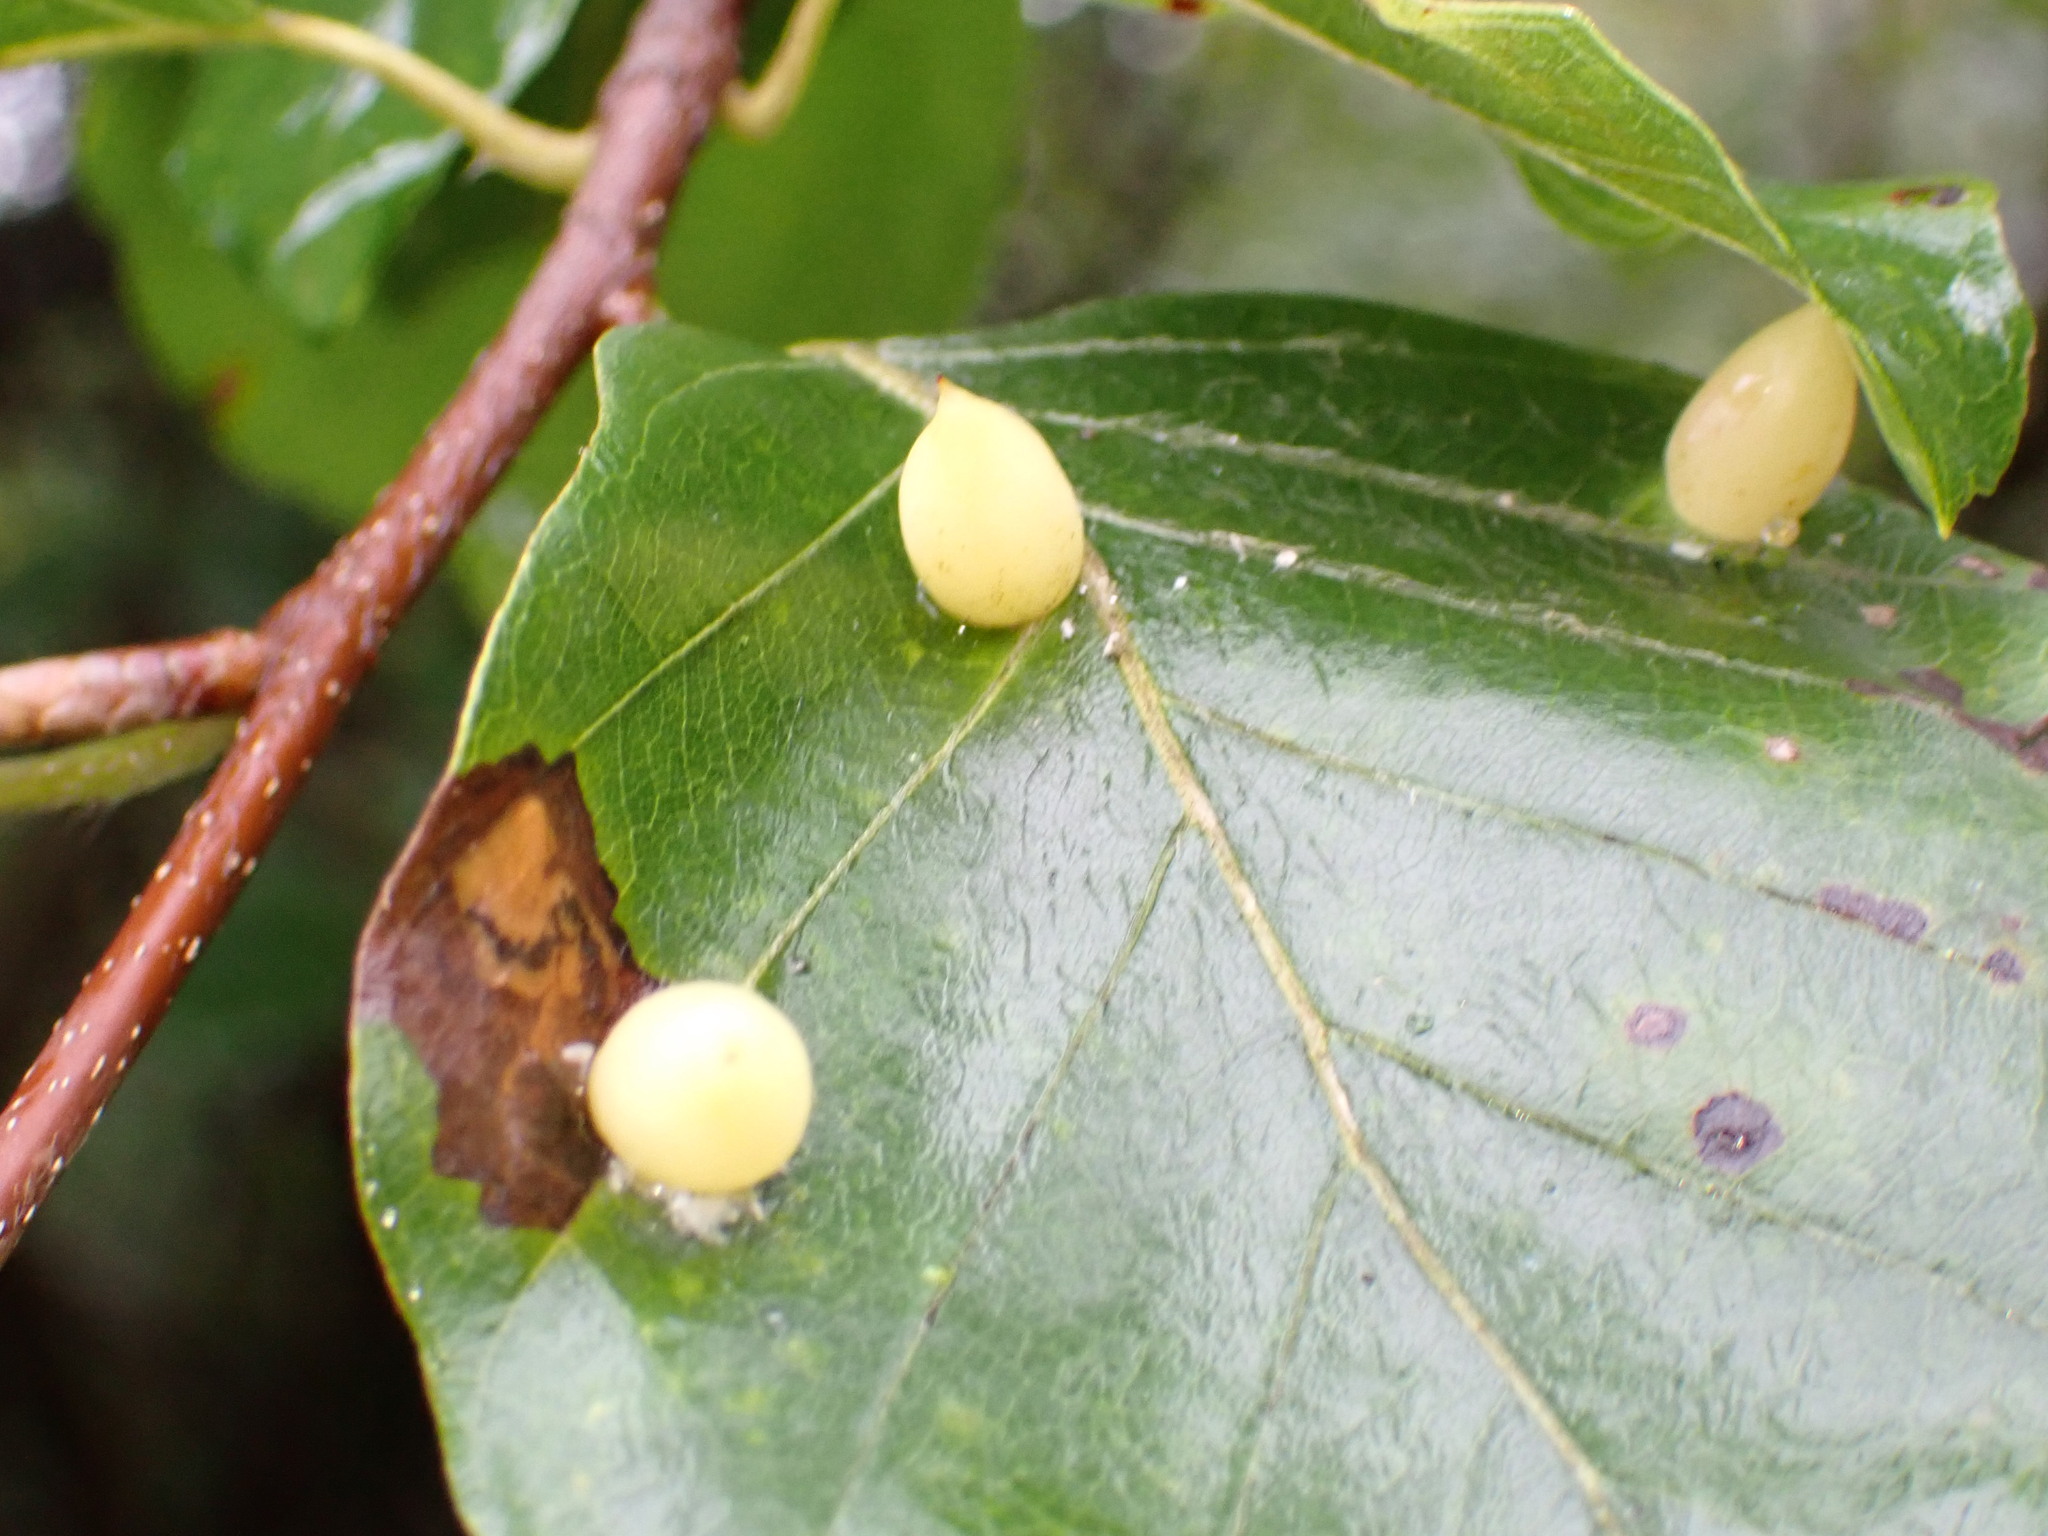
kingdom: Animalia
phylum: Arthropoda
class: Insecta
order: Diptera
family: Cecidomyiidae
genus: Mikiola
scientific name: Mikiola fagi
